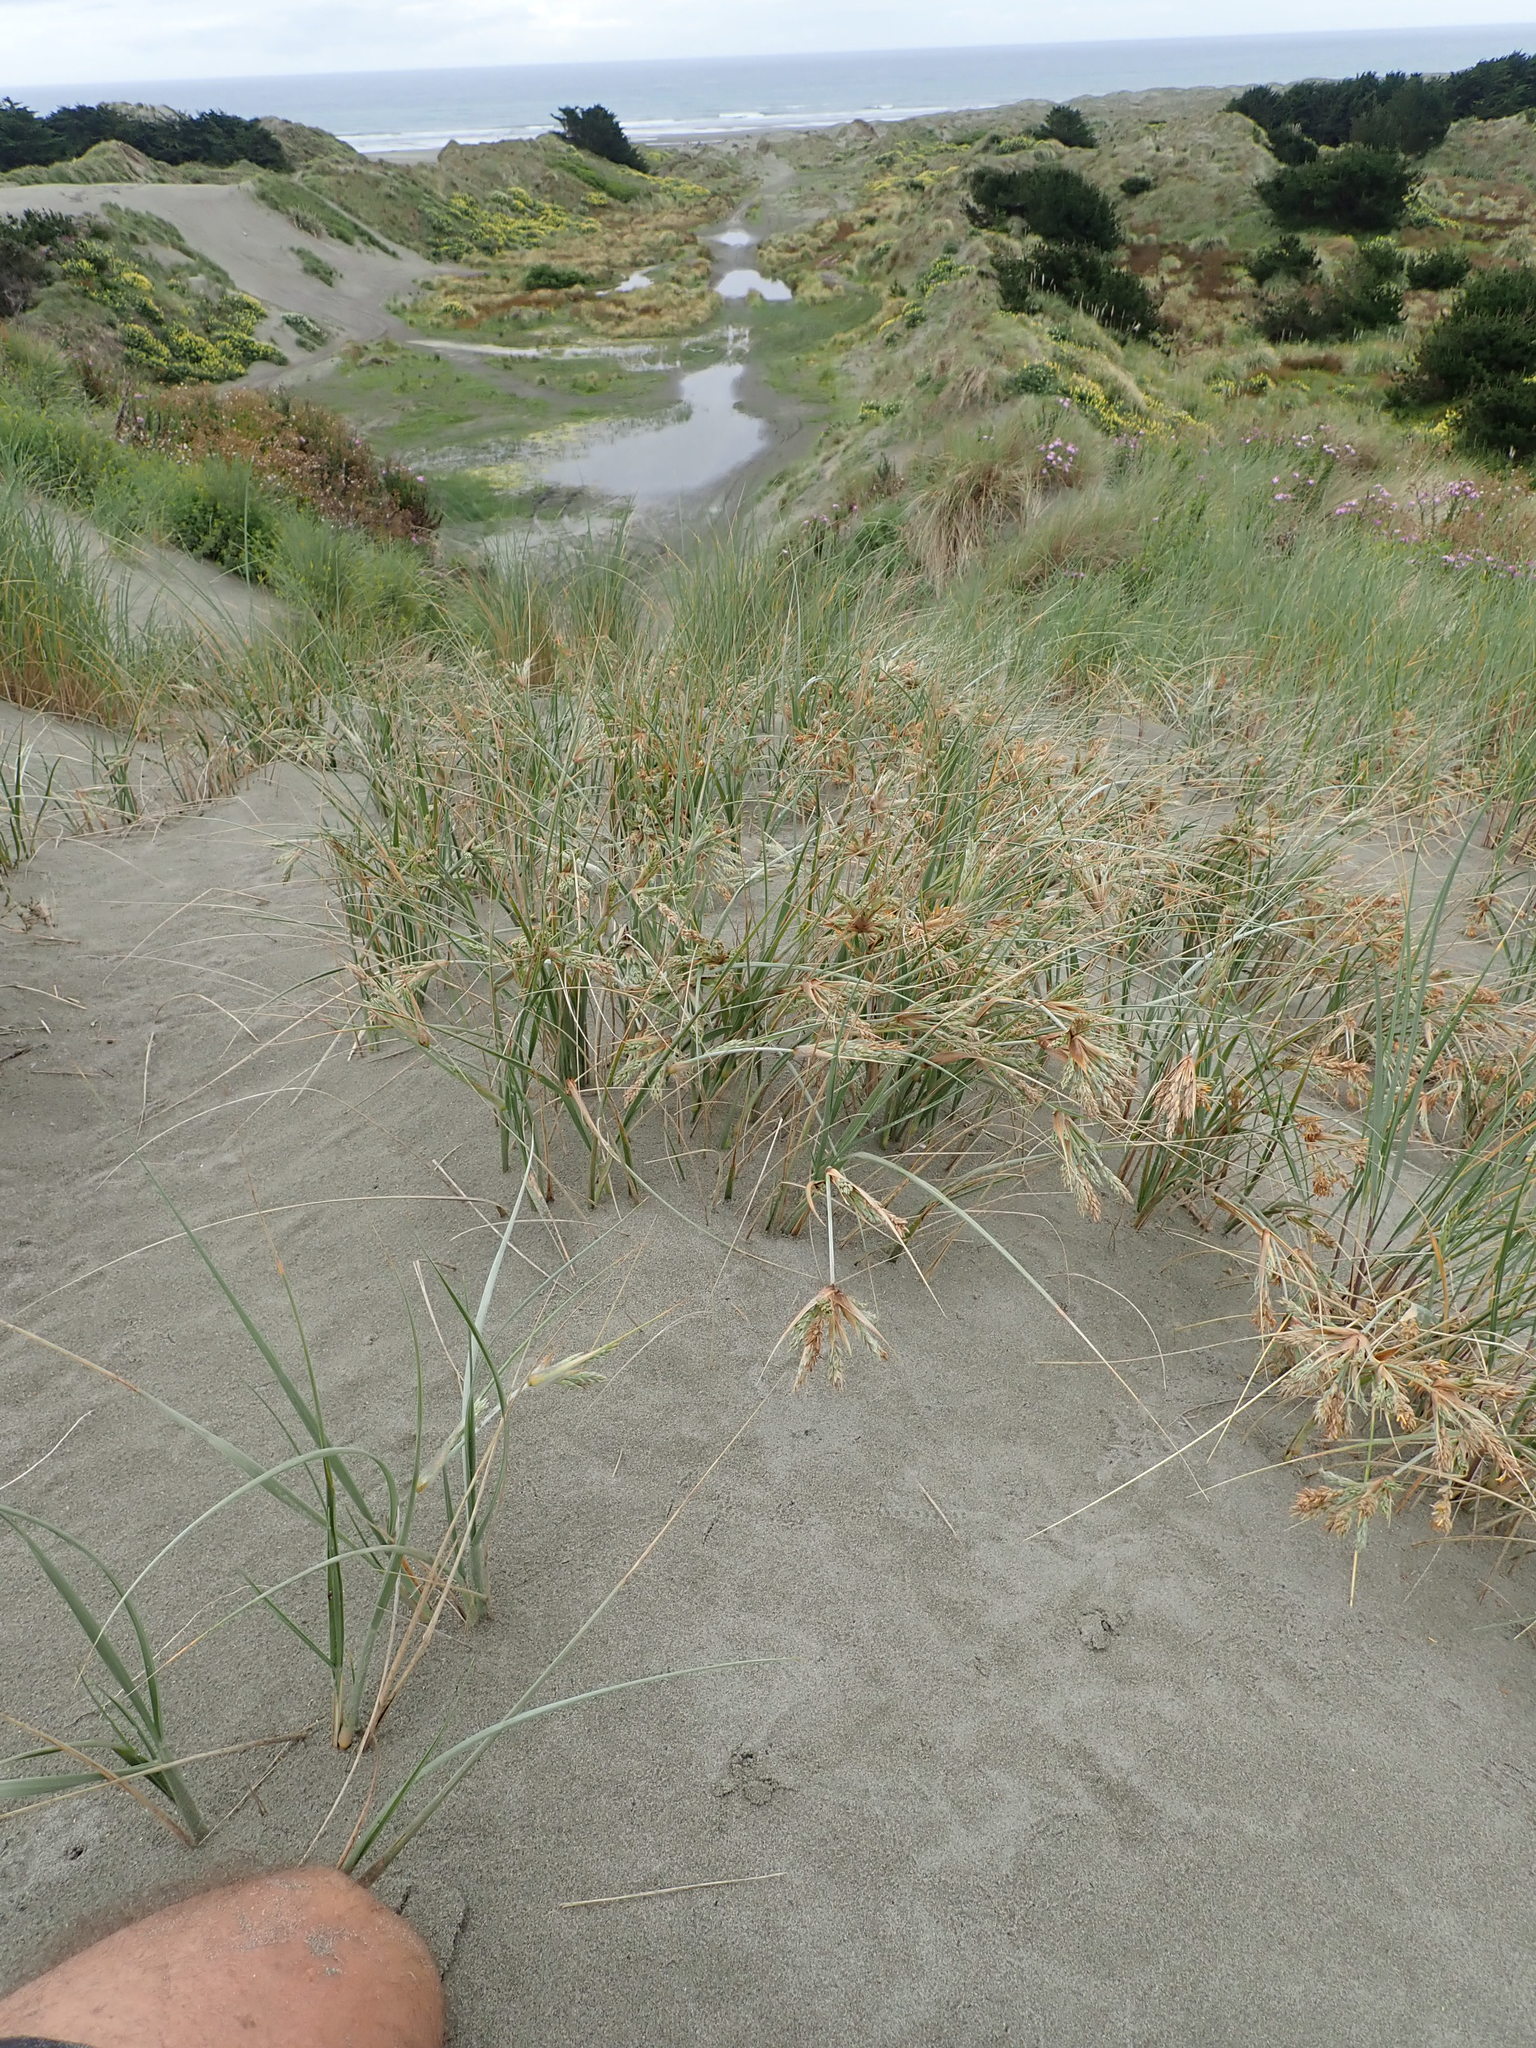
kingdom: Plantae
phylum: Tracheophyta
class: Liliopsida
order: Poales
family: Poaceae
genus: Spinifex
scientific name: Spinifex sericeus
